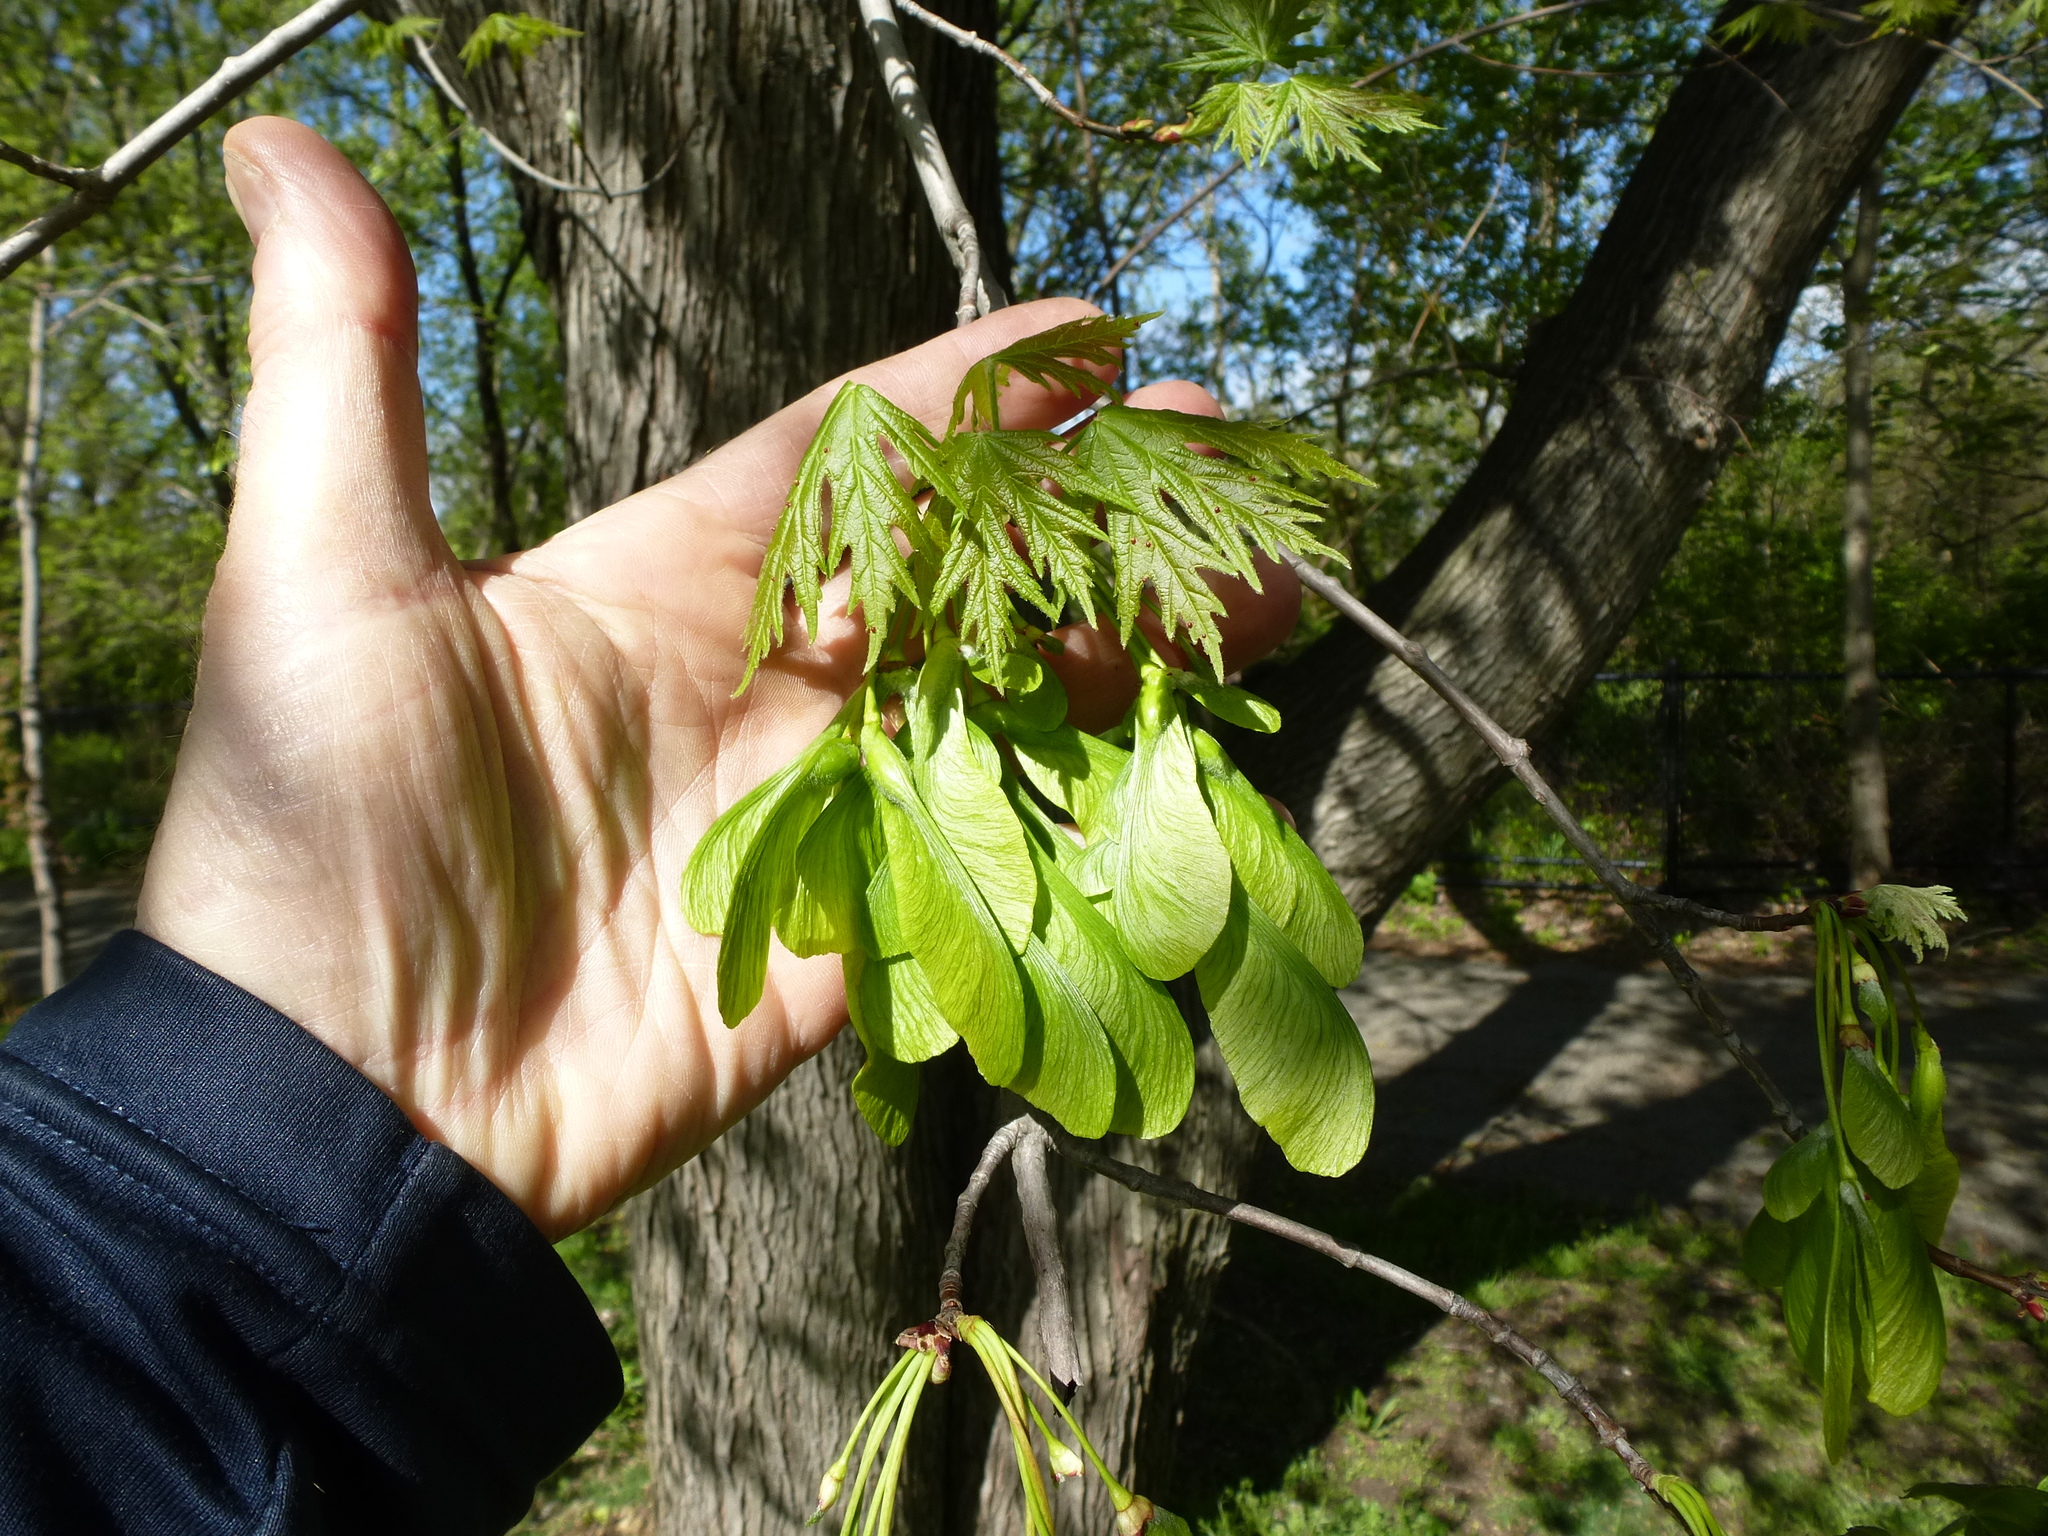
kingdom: Plantae
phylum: Tracheophyta
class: Magnoliopsida
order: Sapindales
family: Sapindaceae
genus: Acer
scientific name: Acer saccharinum
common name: Silver maple
